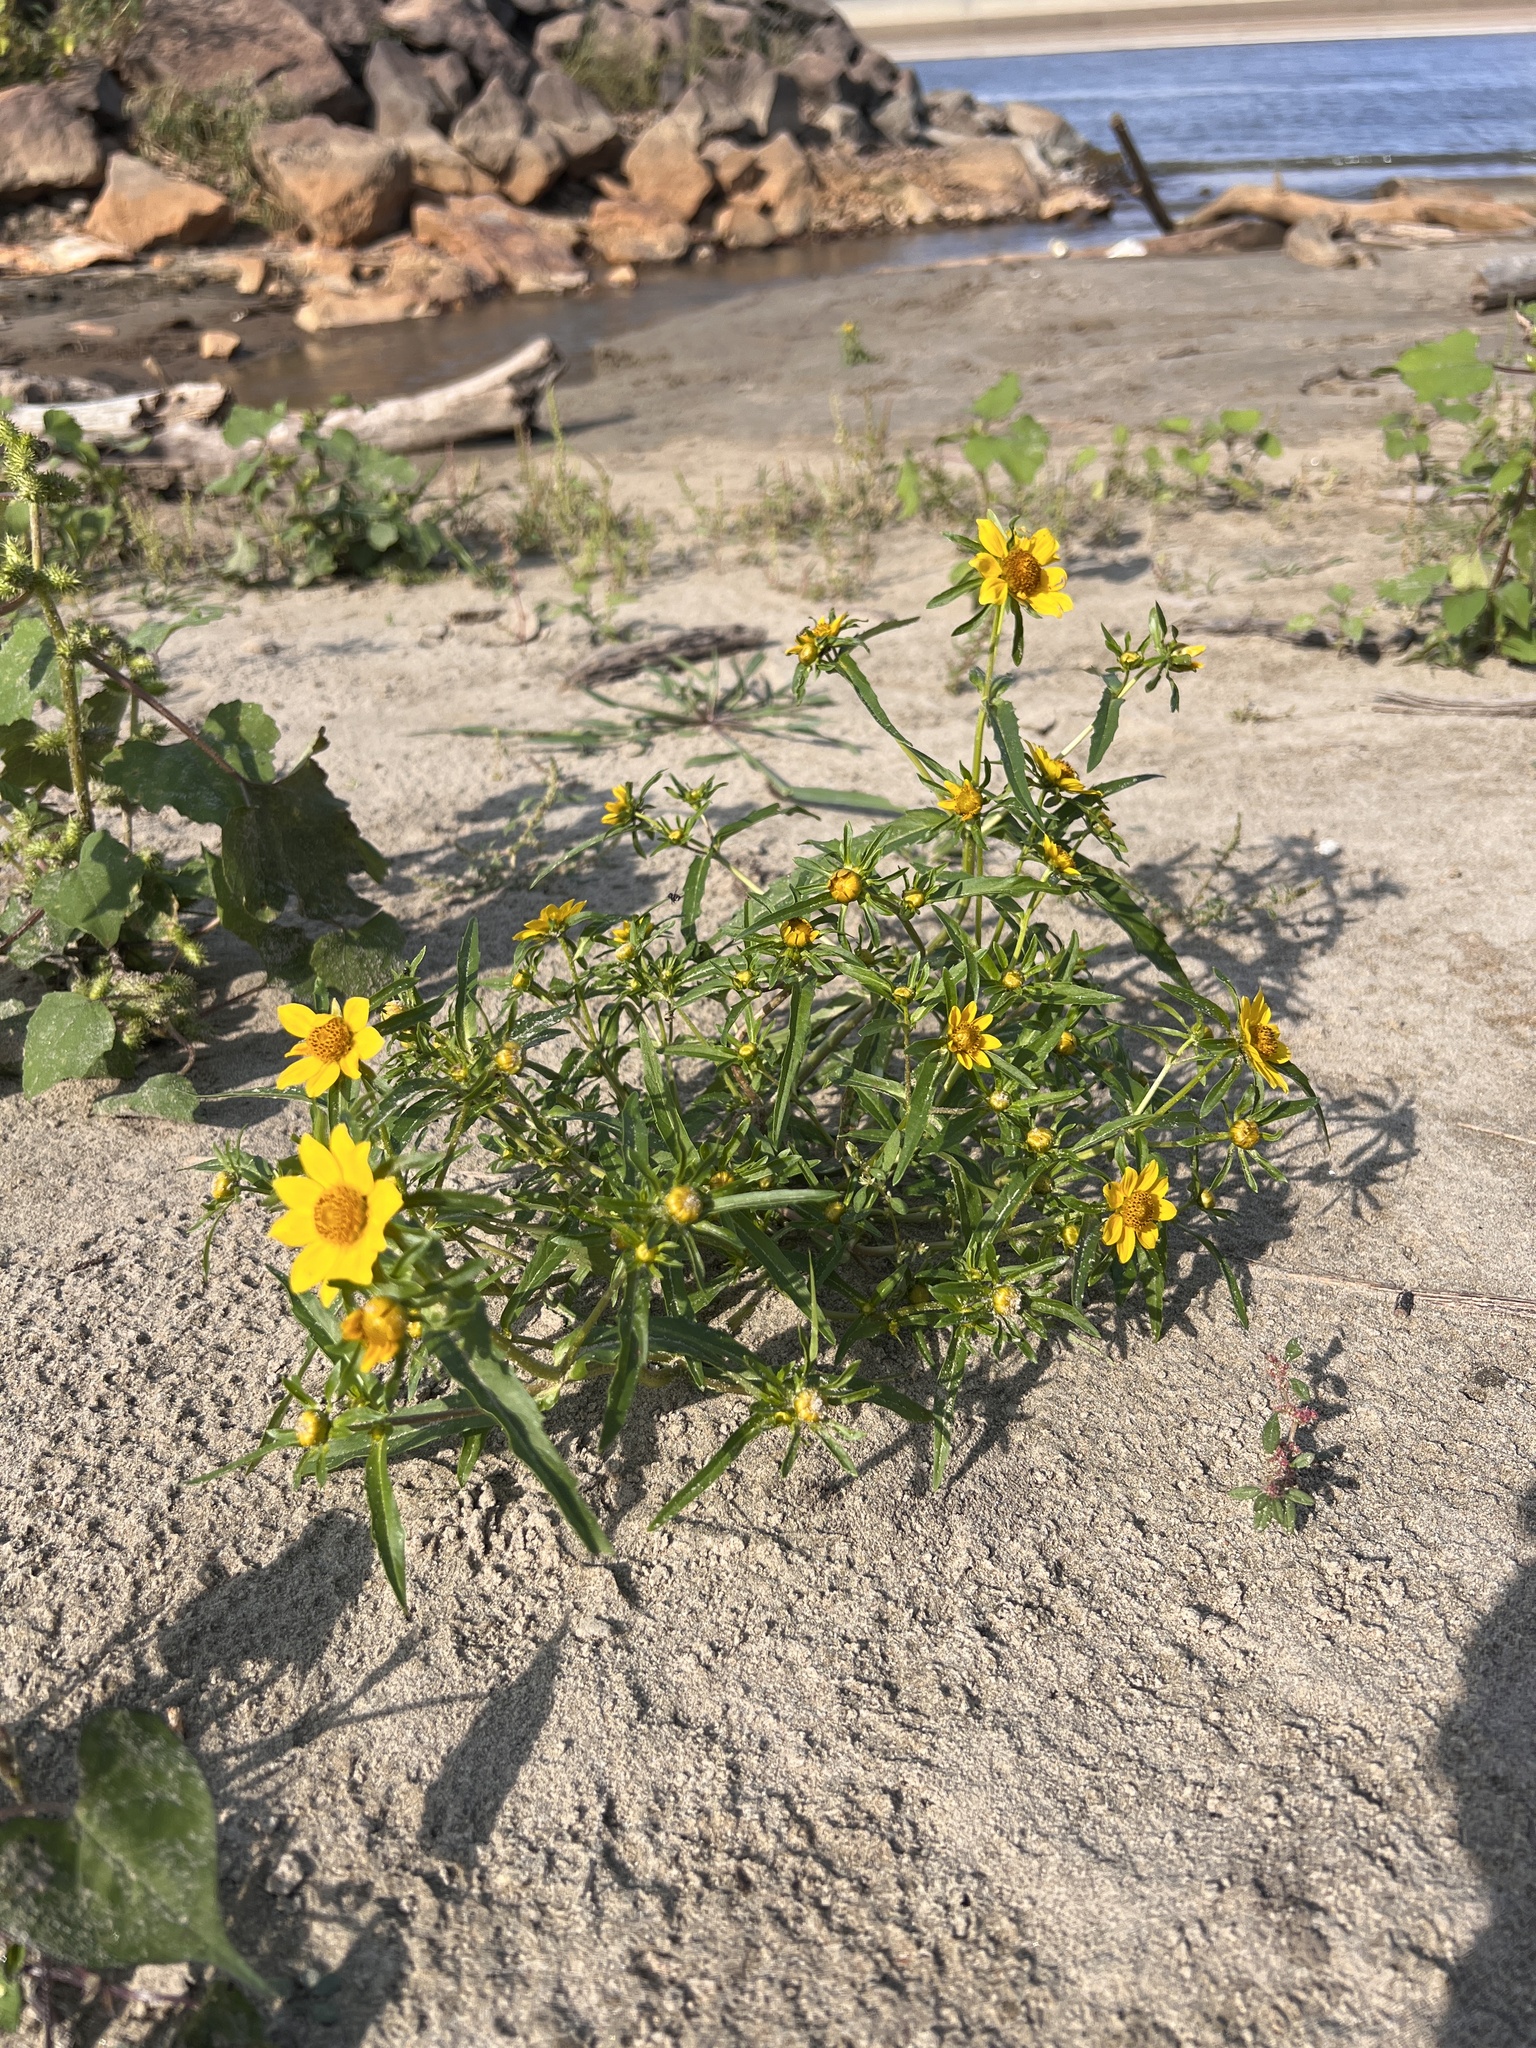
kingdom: Plantae
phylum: Tracheophyta
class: Magnoliopsida
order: Asterales
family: Asteraceae
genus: Bidens
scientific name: Bidens cernua
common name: Nodding bur-marigold
